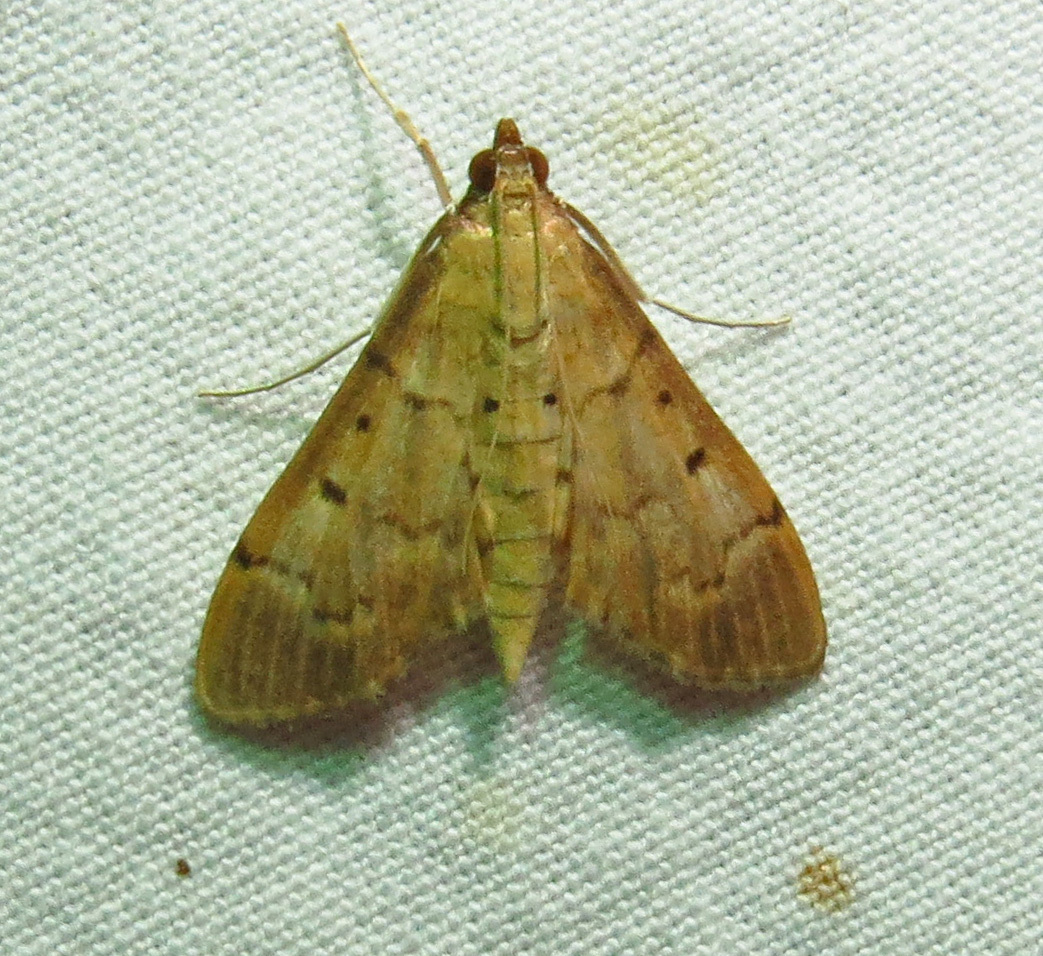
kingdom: Animalia
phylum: Arthropoda
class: Insecta
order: Lepidoptera
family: Crambidae
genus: Herpetogramma
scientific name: Herpetogramma bipunctalis
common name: Southern beet webworm
